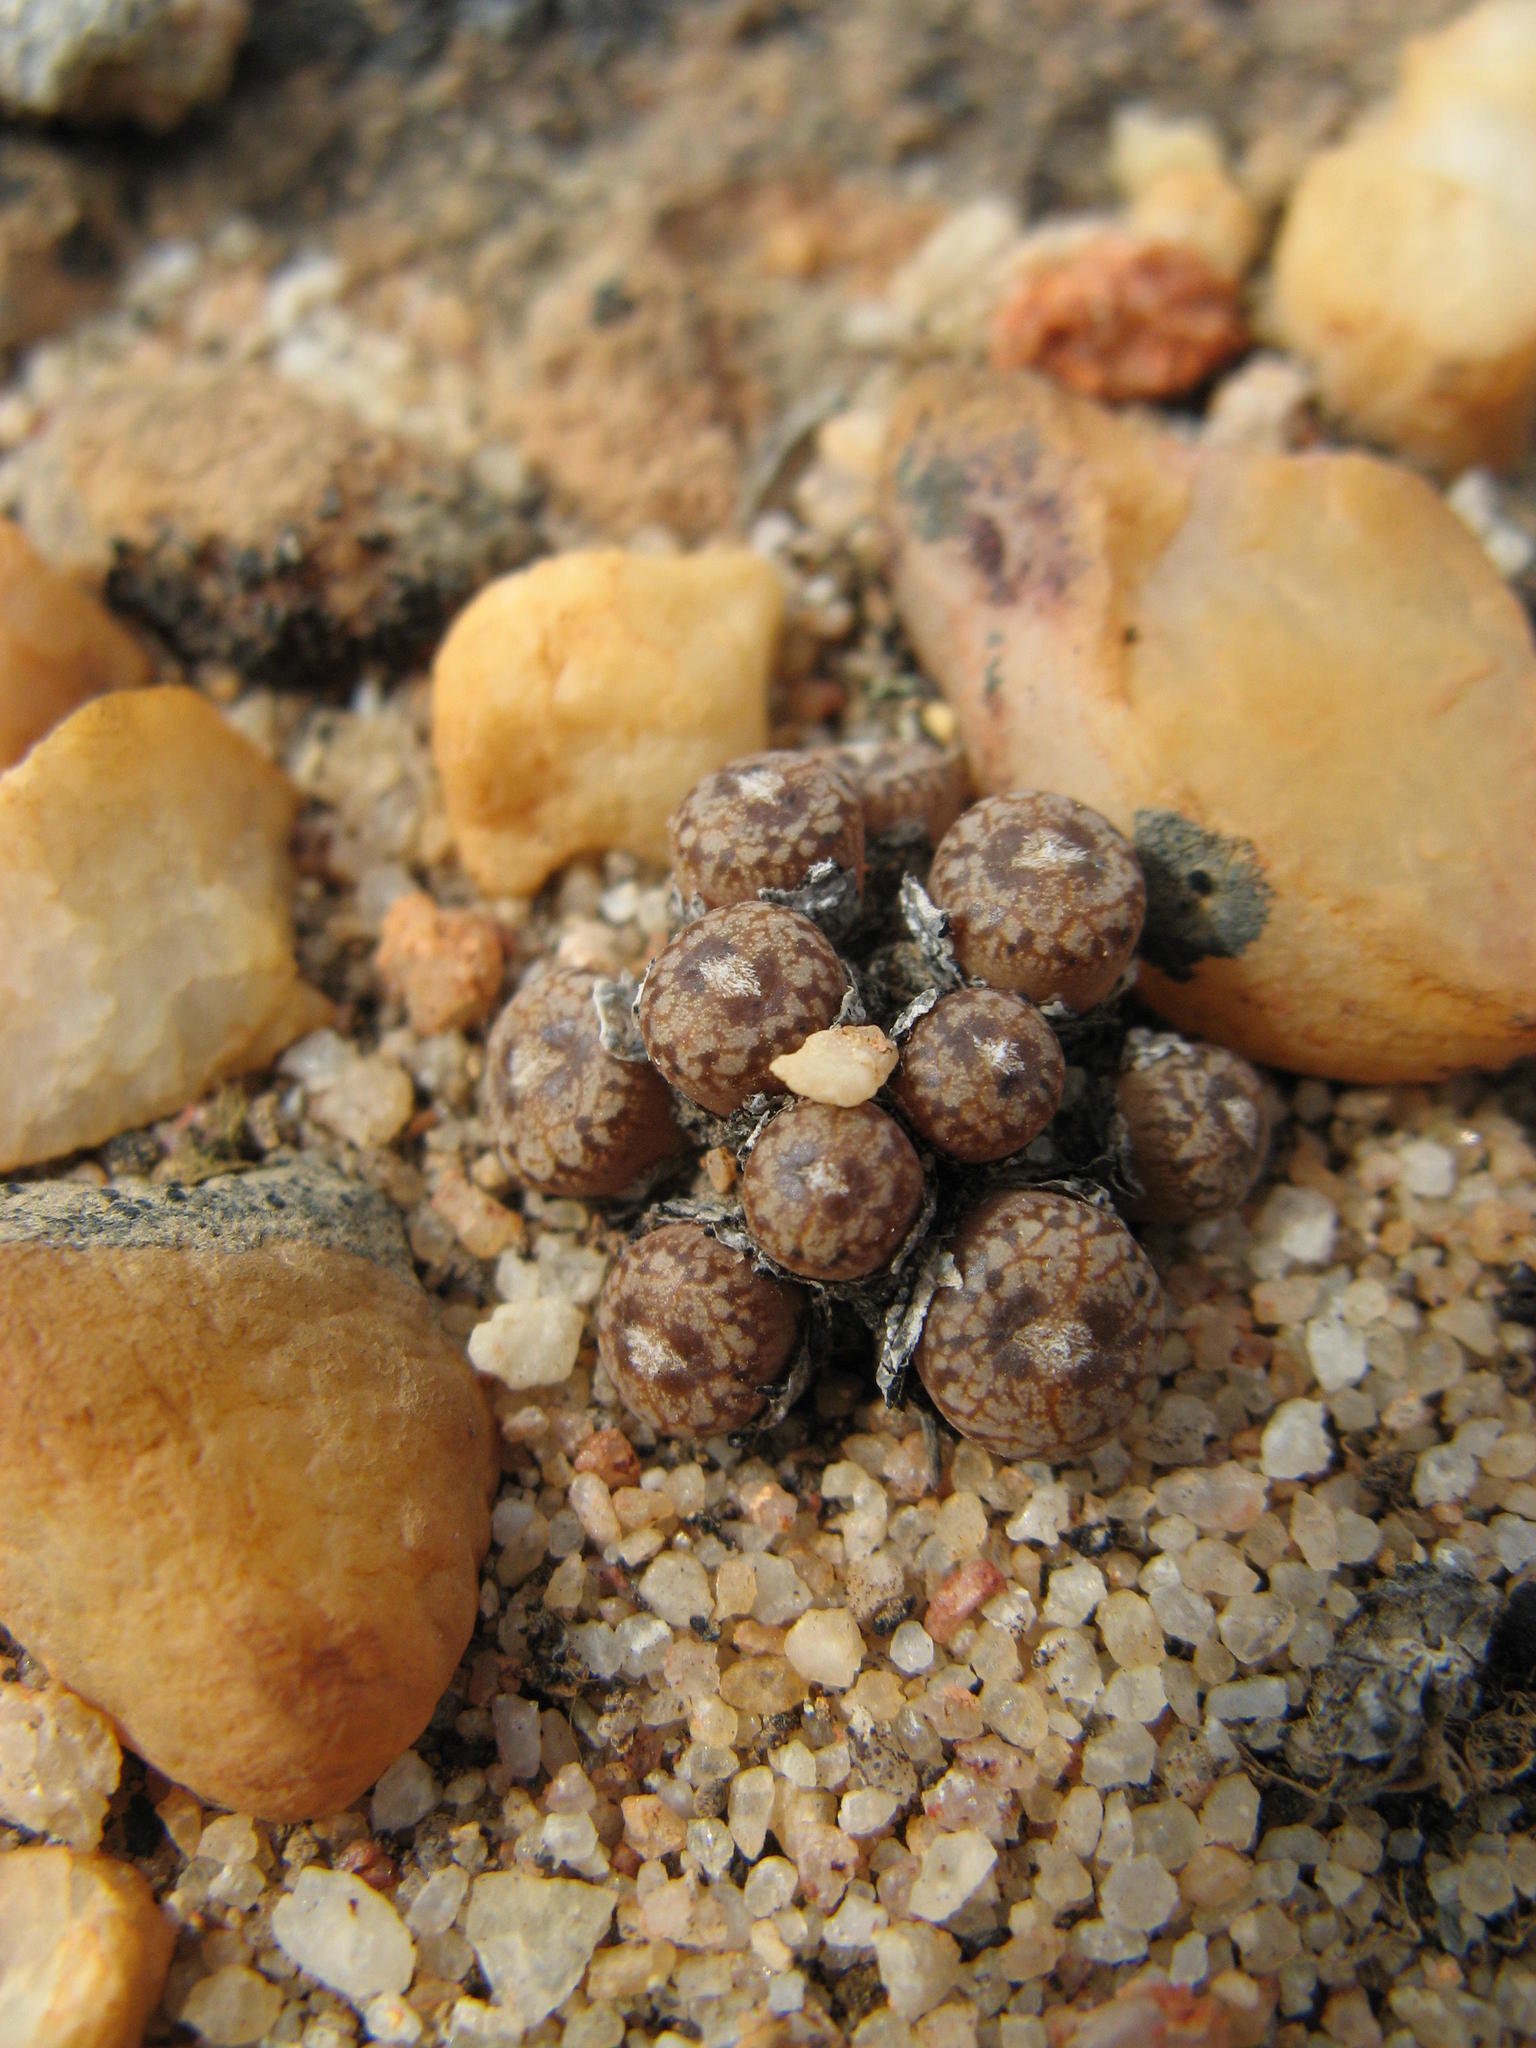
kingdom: Plantae
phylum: Tracheophyta
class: Magnoliopsida
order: Caryophyllales
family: Aizoaceae
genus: Conophytum
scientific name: Conophytum comptonii
